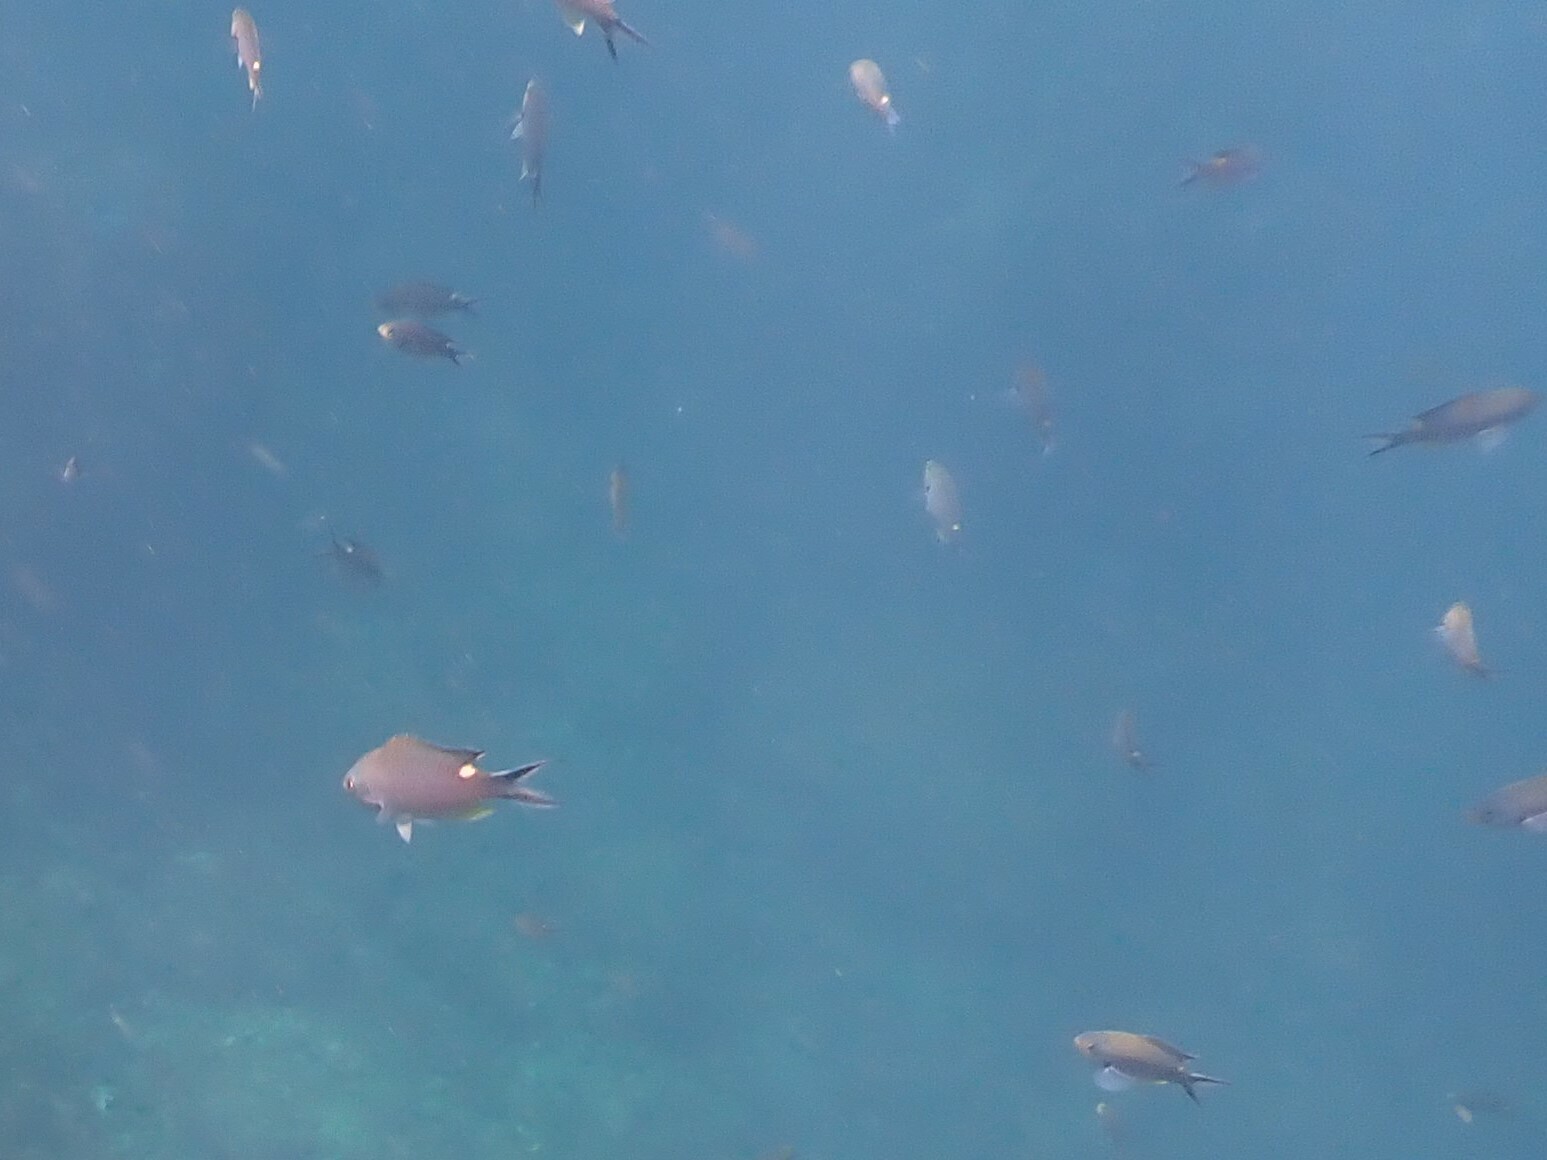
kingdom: Animalia
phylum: Chordata
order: Perciformes
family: Pomacentridae
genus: Chromis
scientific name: Chromis atrilobata
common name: Scissortail damselfish
